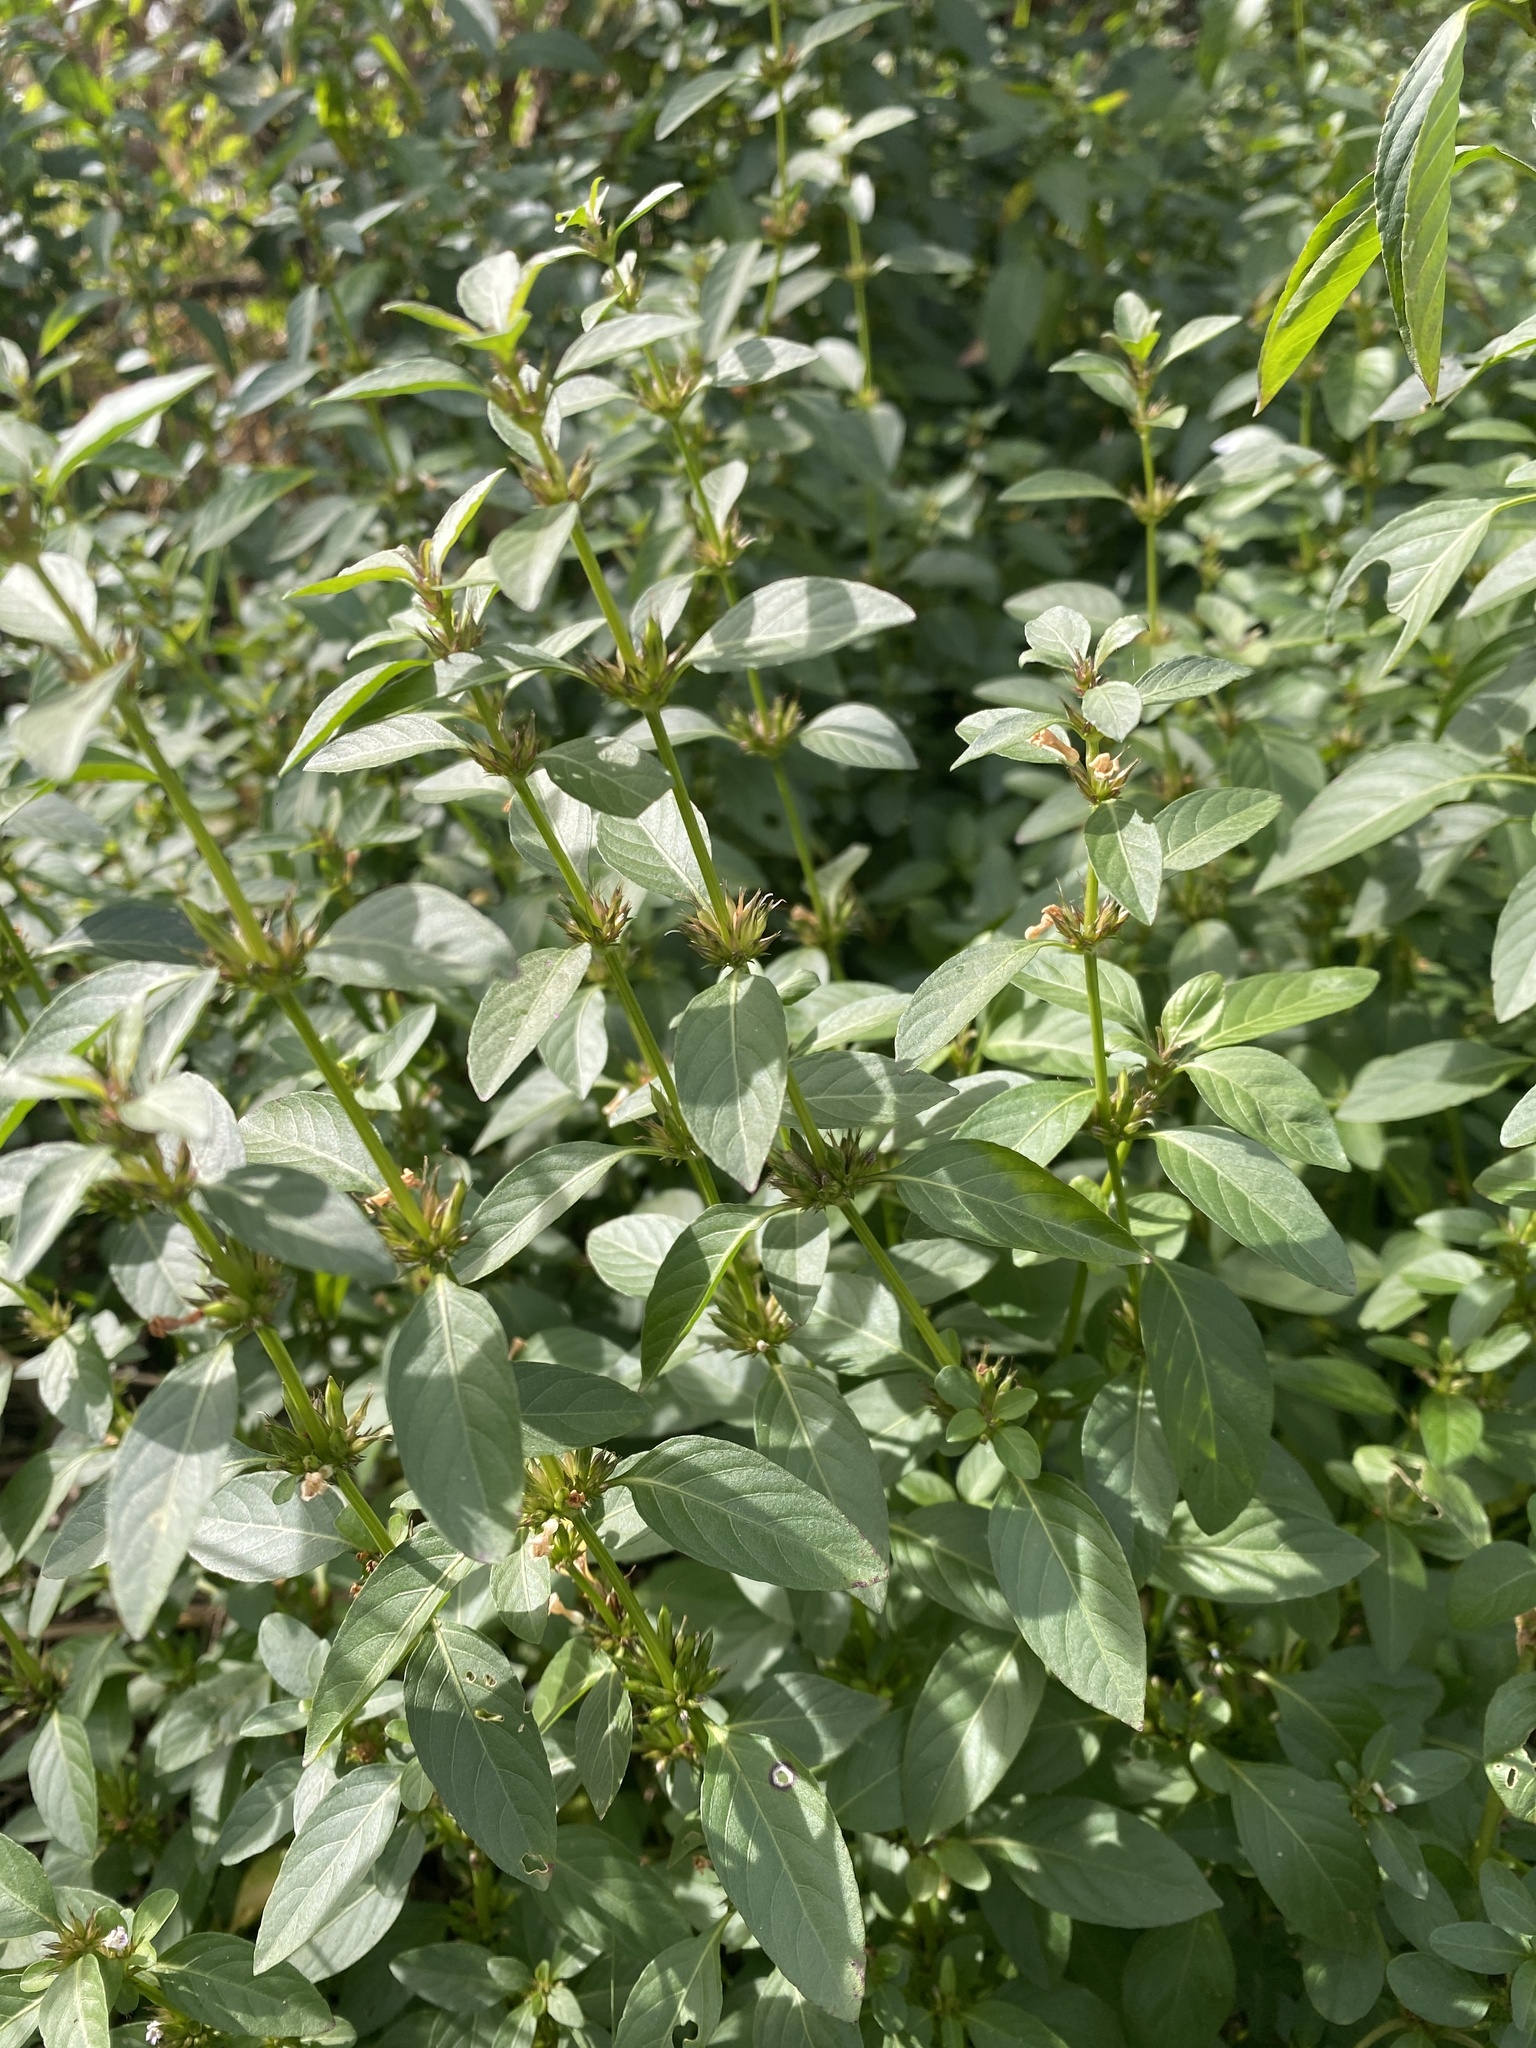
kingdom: Plantae
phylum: Tracheophyta
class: Magnoliopsida
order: Lamiales
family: Acanthaceae
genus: Hygrophila
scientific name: Hygrophila erecta
